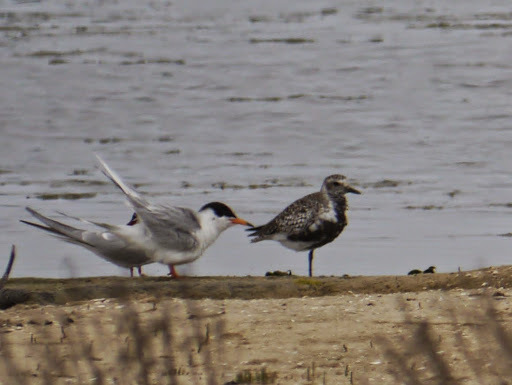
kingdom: Animalia
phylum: Chordata
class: Aves
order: Charadriiformes
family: Charadriidae
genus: Pluvialis
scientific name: Pluvialis squatarola
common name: Grey plover
